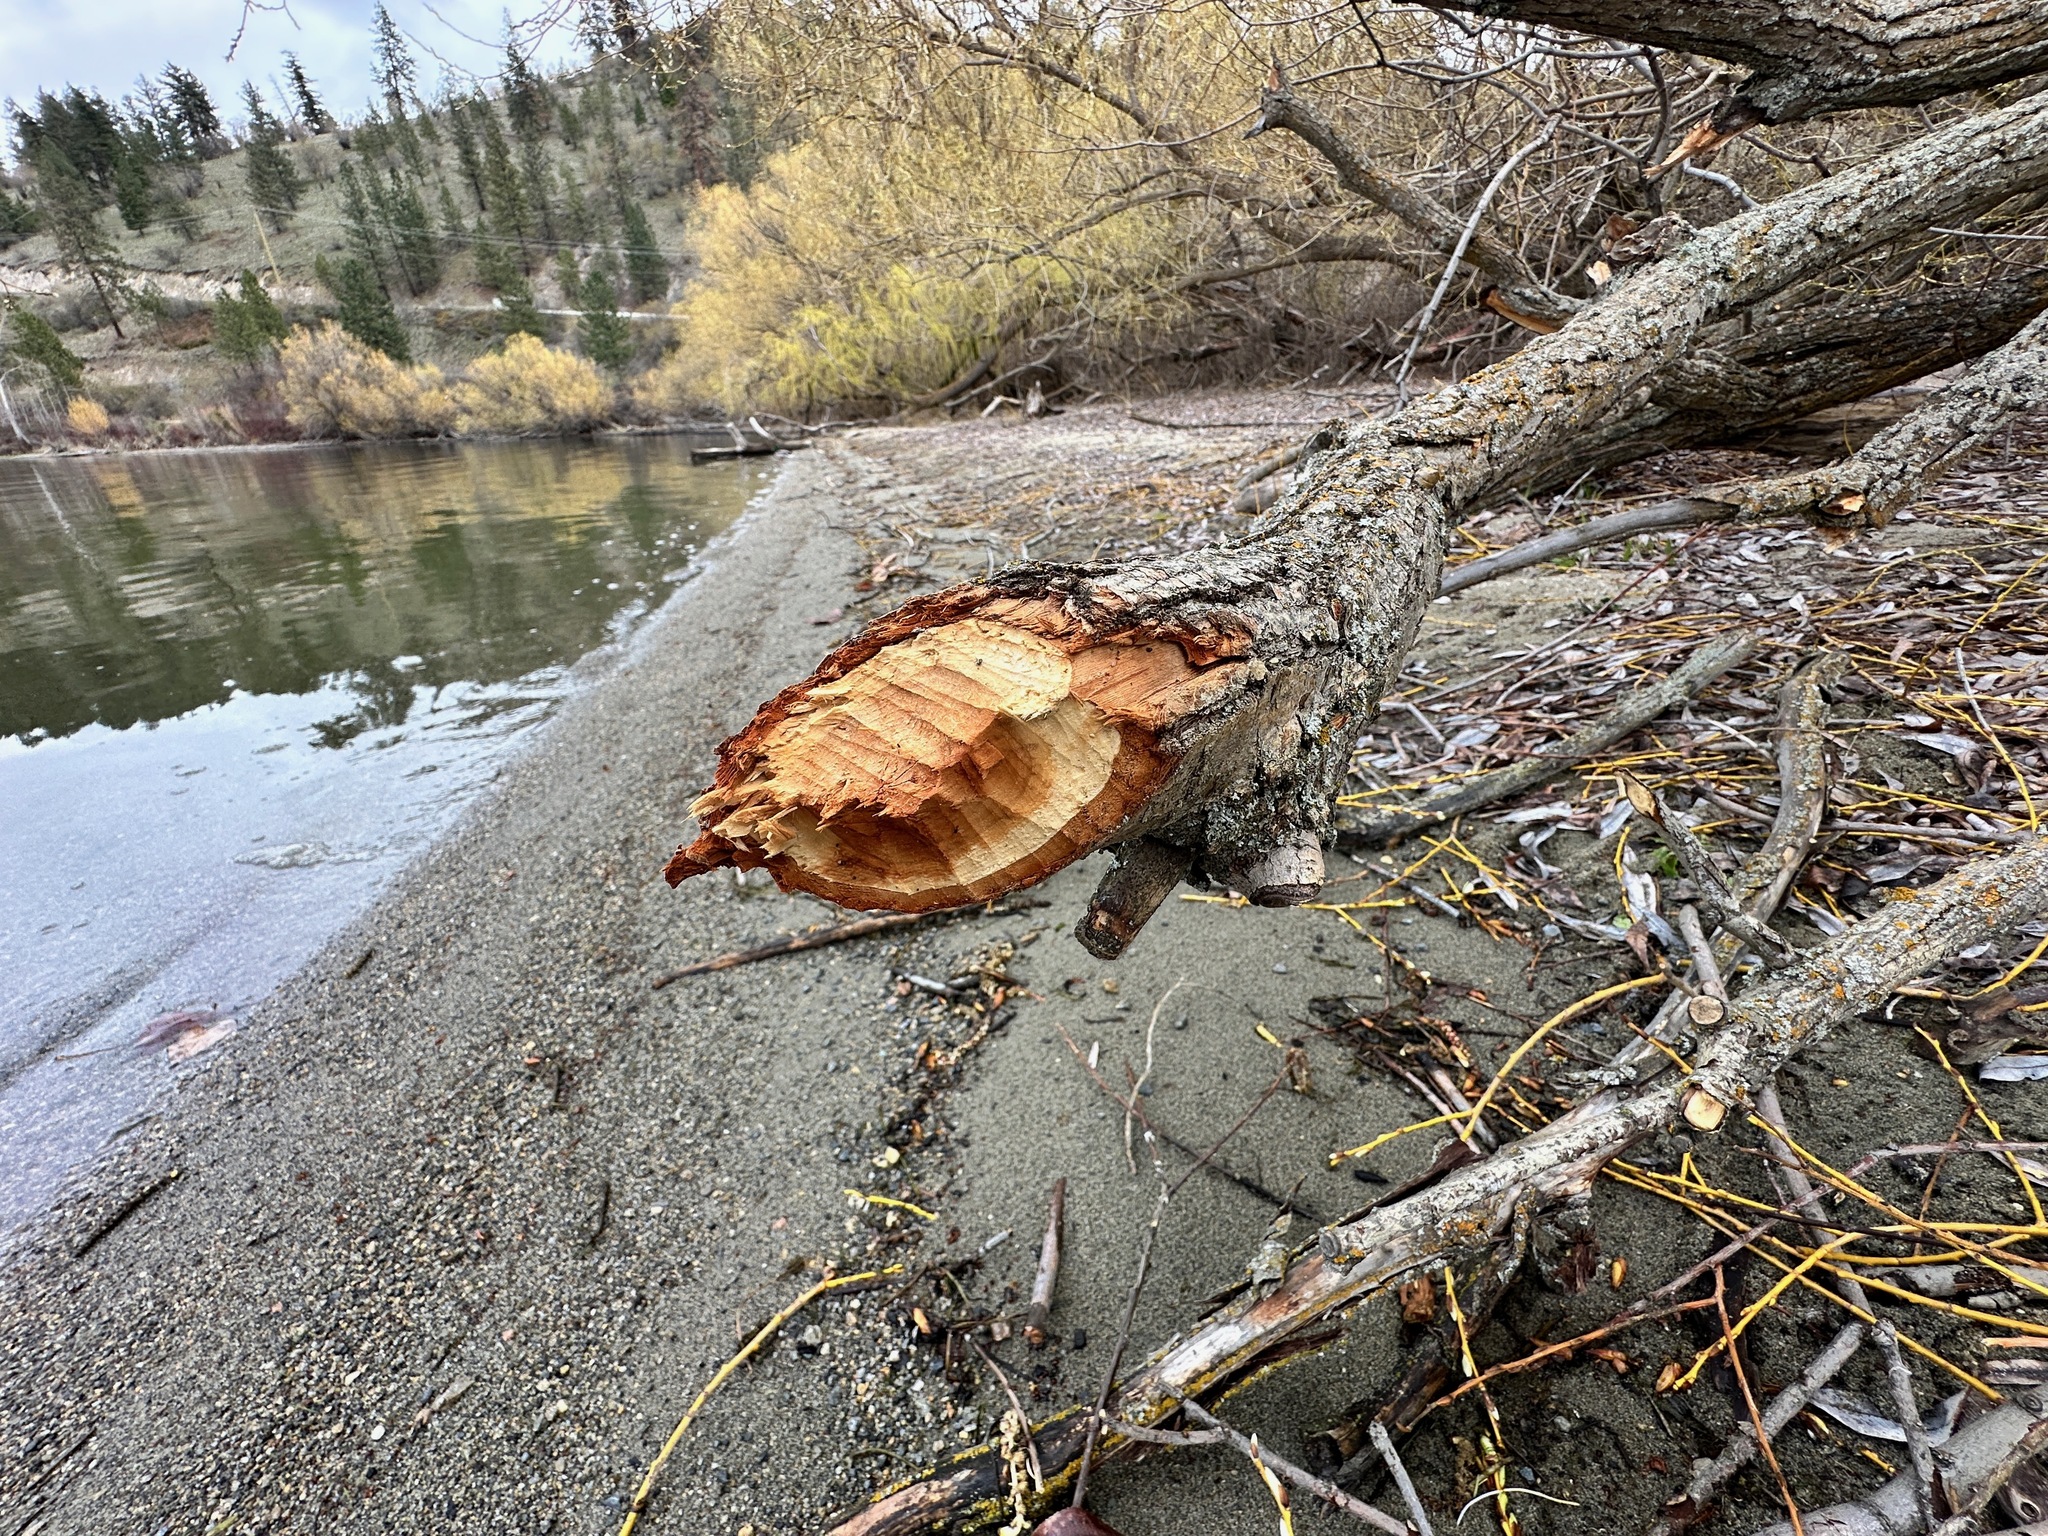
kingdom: Animalia
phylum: Chordata
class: Mammalia
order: Rodentia
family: Castoridae
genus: Castor
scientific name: Castor canadensis
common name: American beaver
